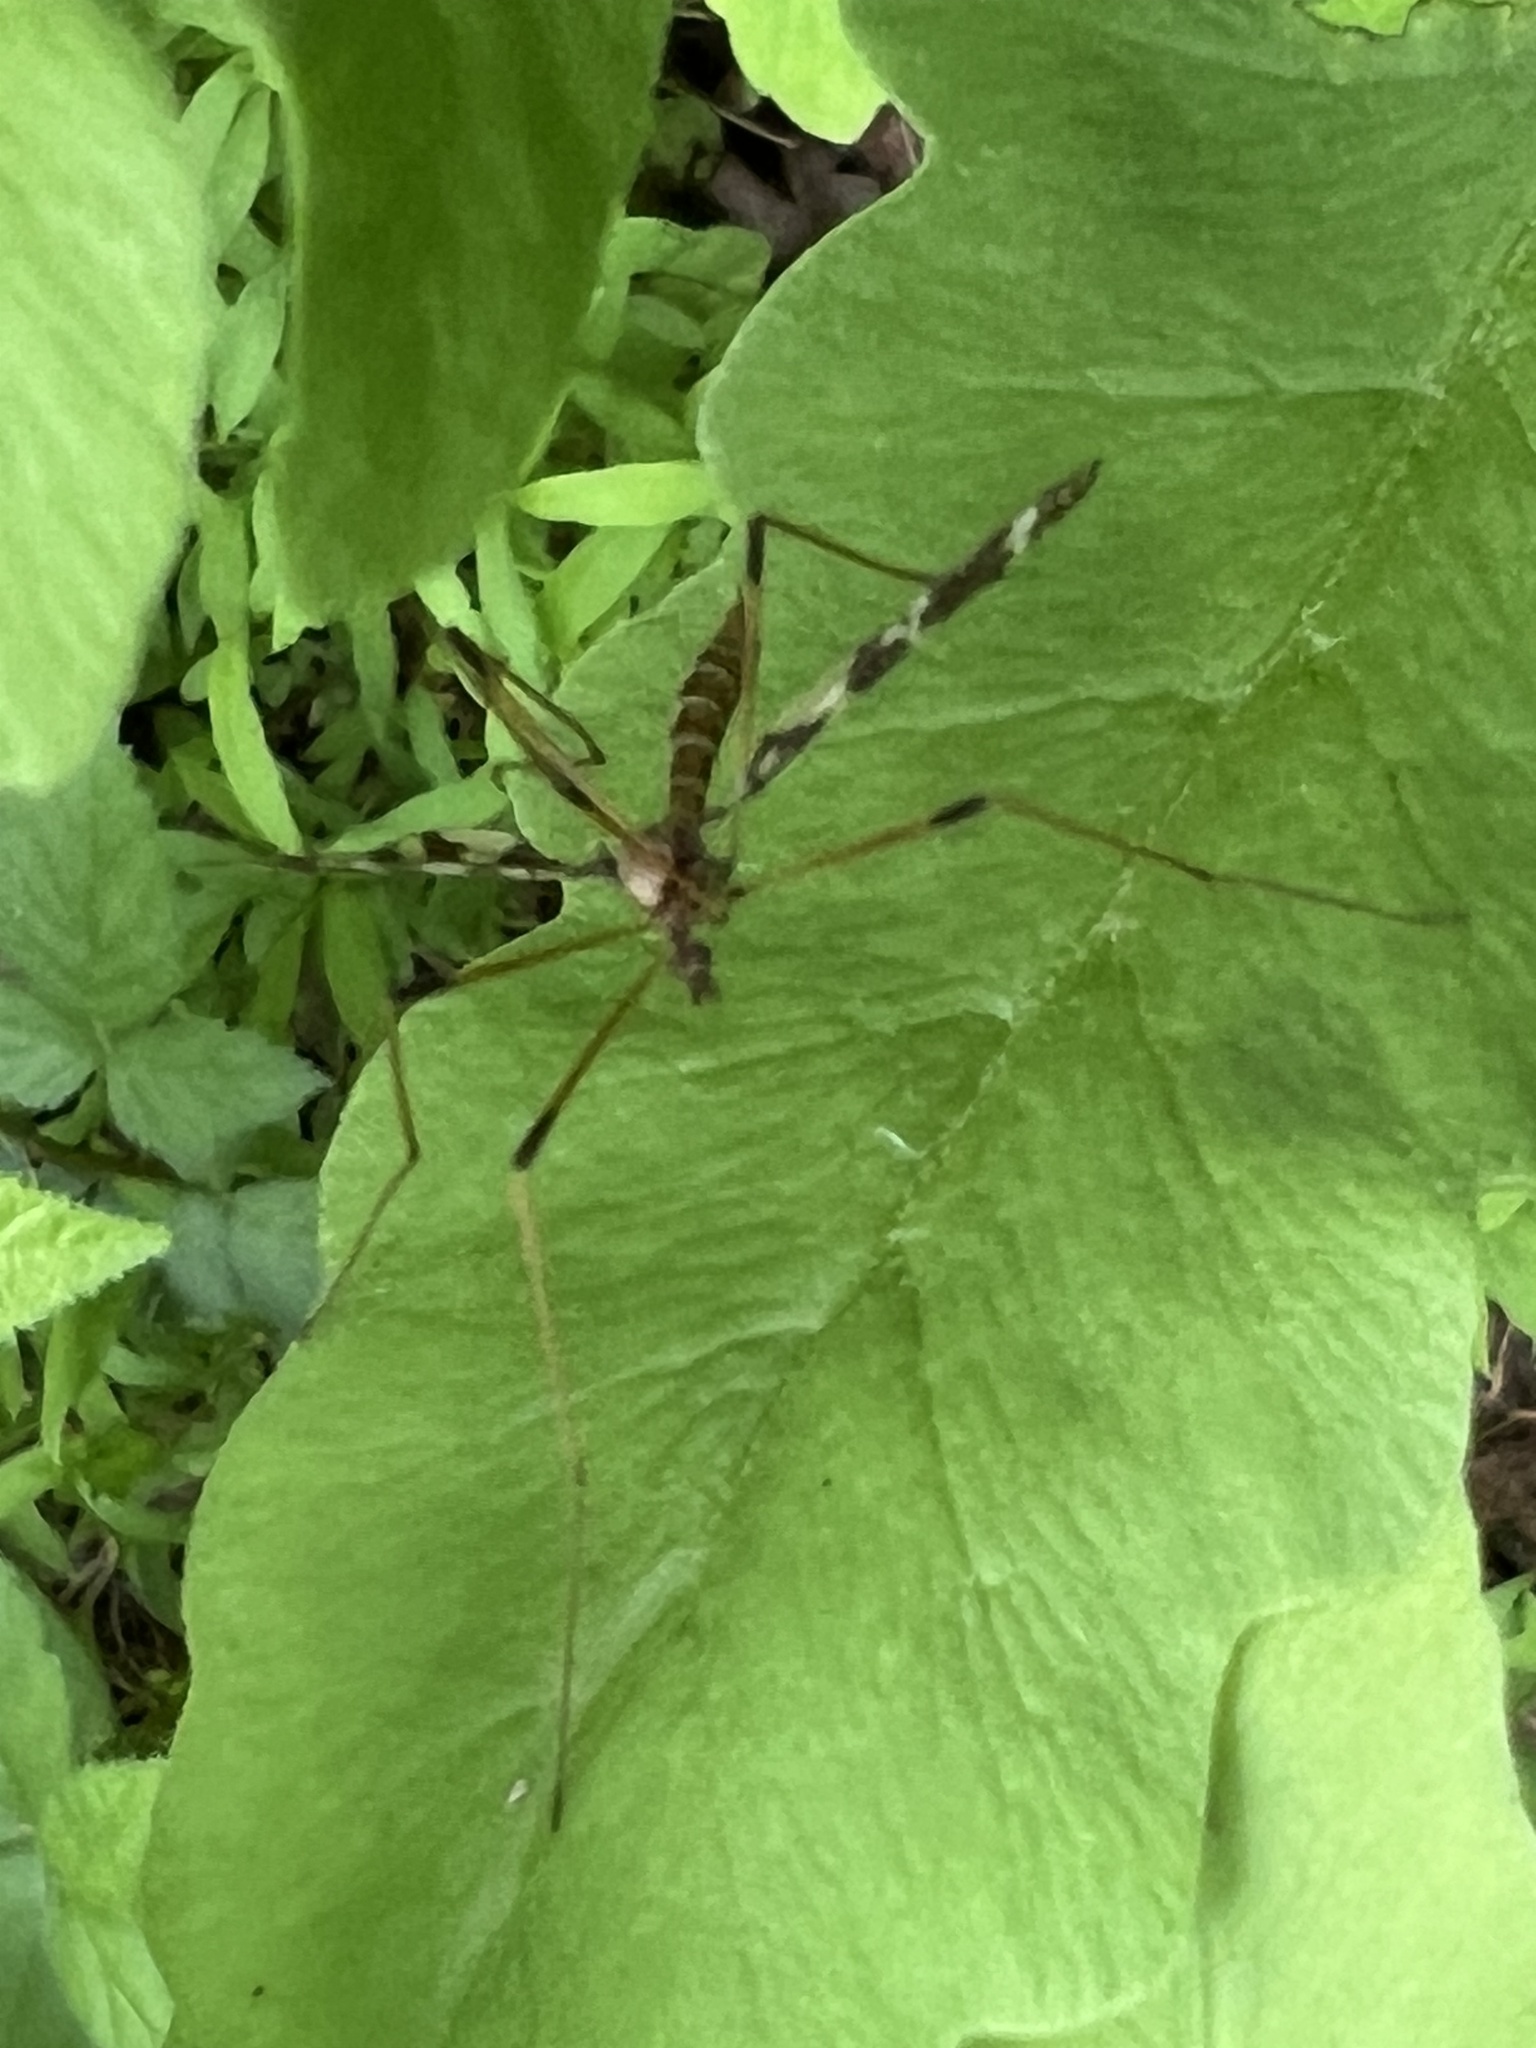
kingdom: Animalia
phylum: Arthropoda
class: Insecta
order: Diptera
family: Limoniidae
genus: Epiphragma
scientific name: Epiphragma fasciapenne
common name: Band-winged crane fly
